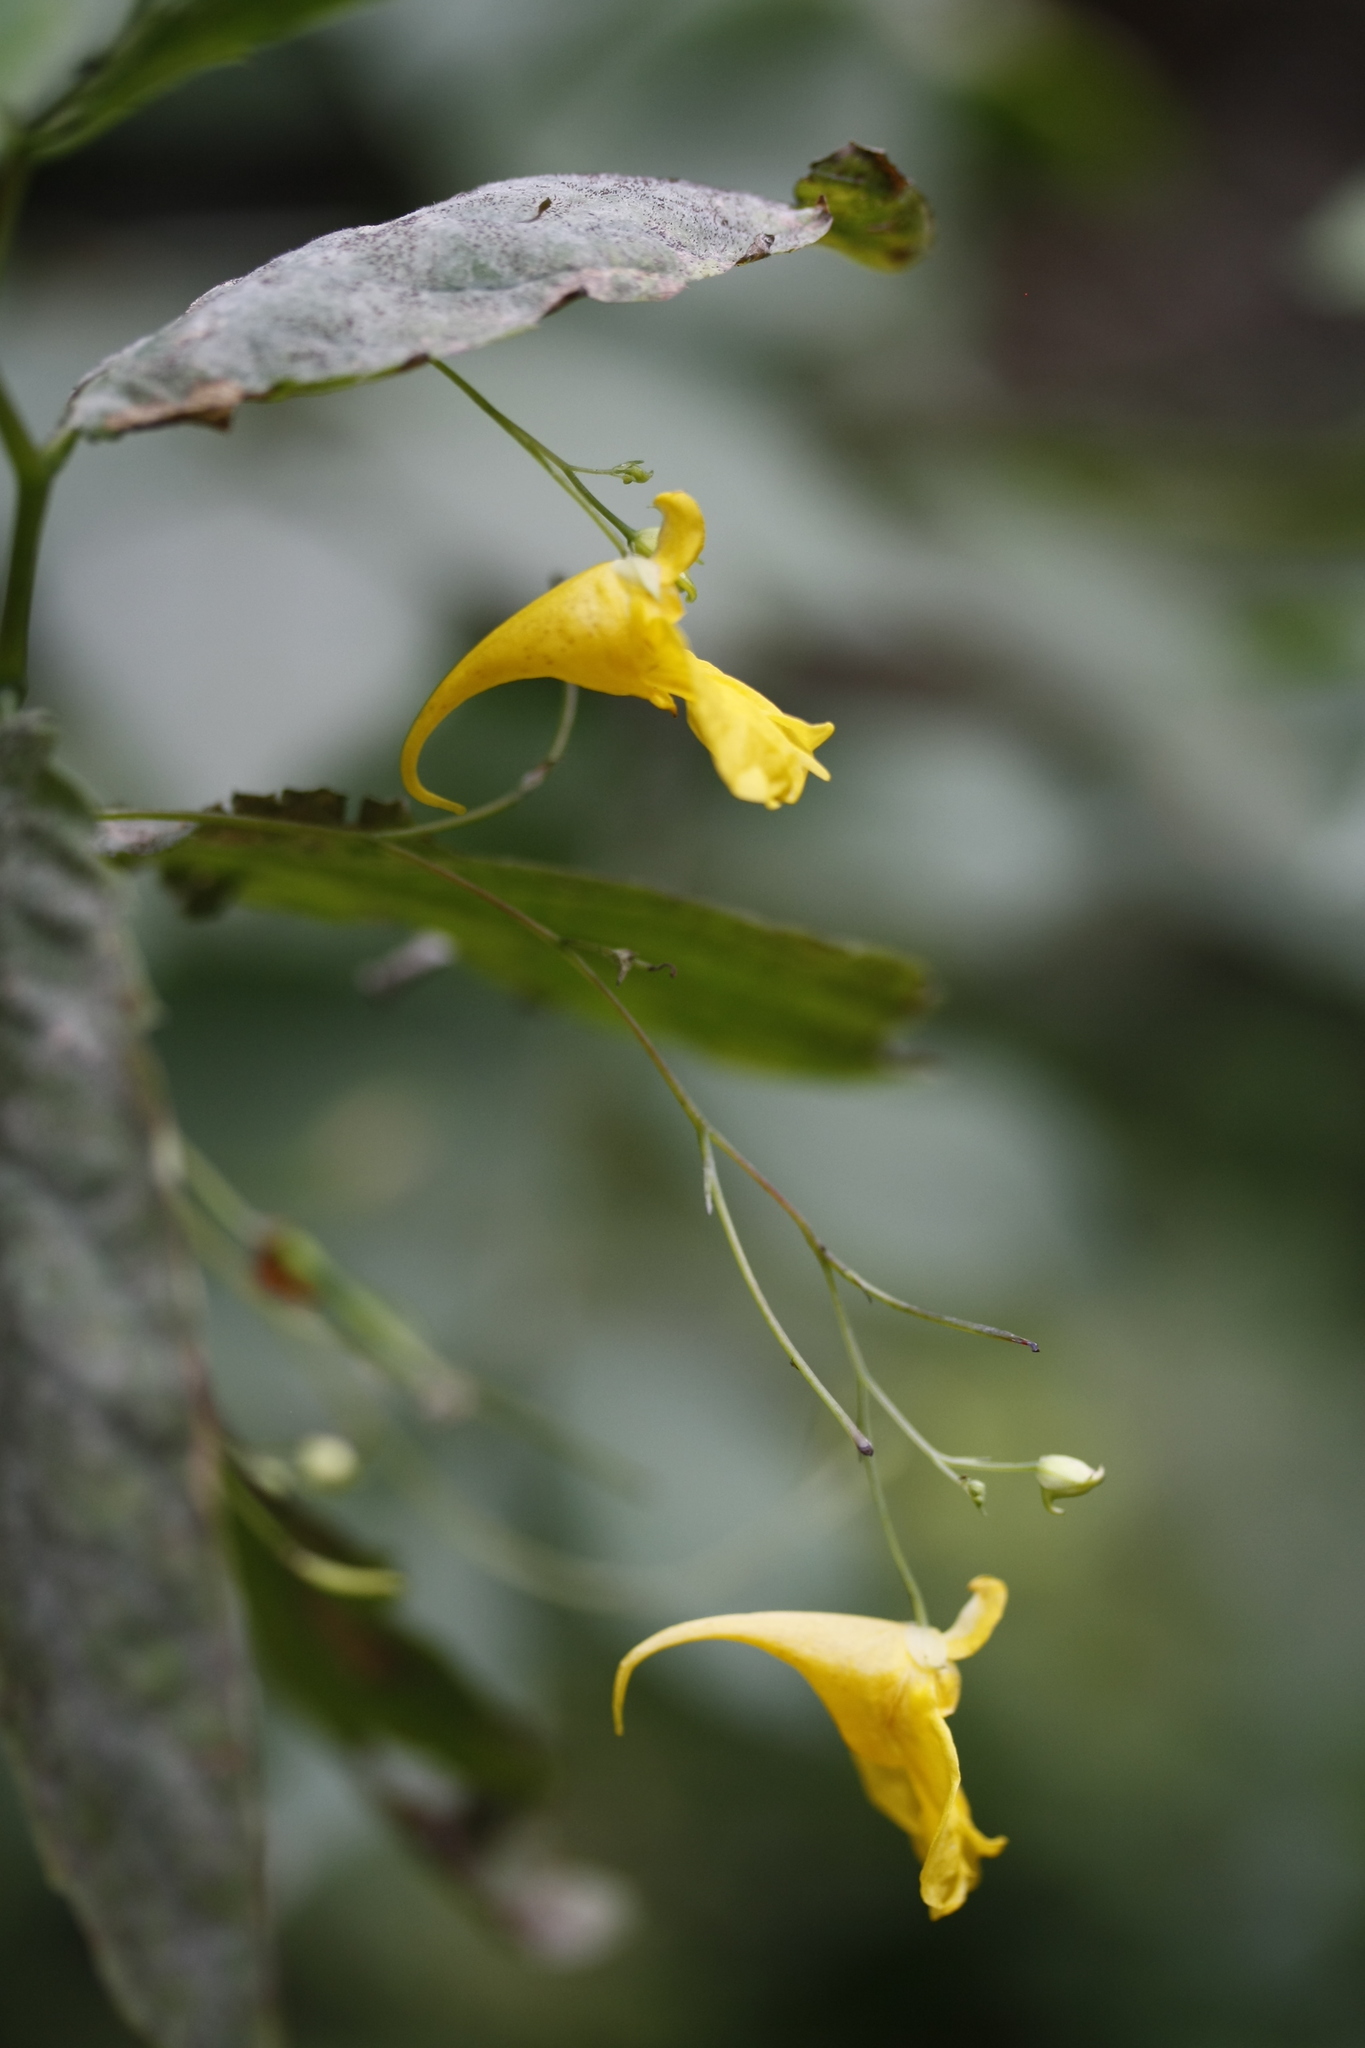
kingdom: Plantae
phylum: Tracheophyta
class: Magnoliopsida
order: Ericales
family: Balsaminaceae
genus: Impatiens
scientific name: Impatiens noli-tangere
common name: Touch-me-not balsam
